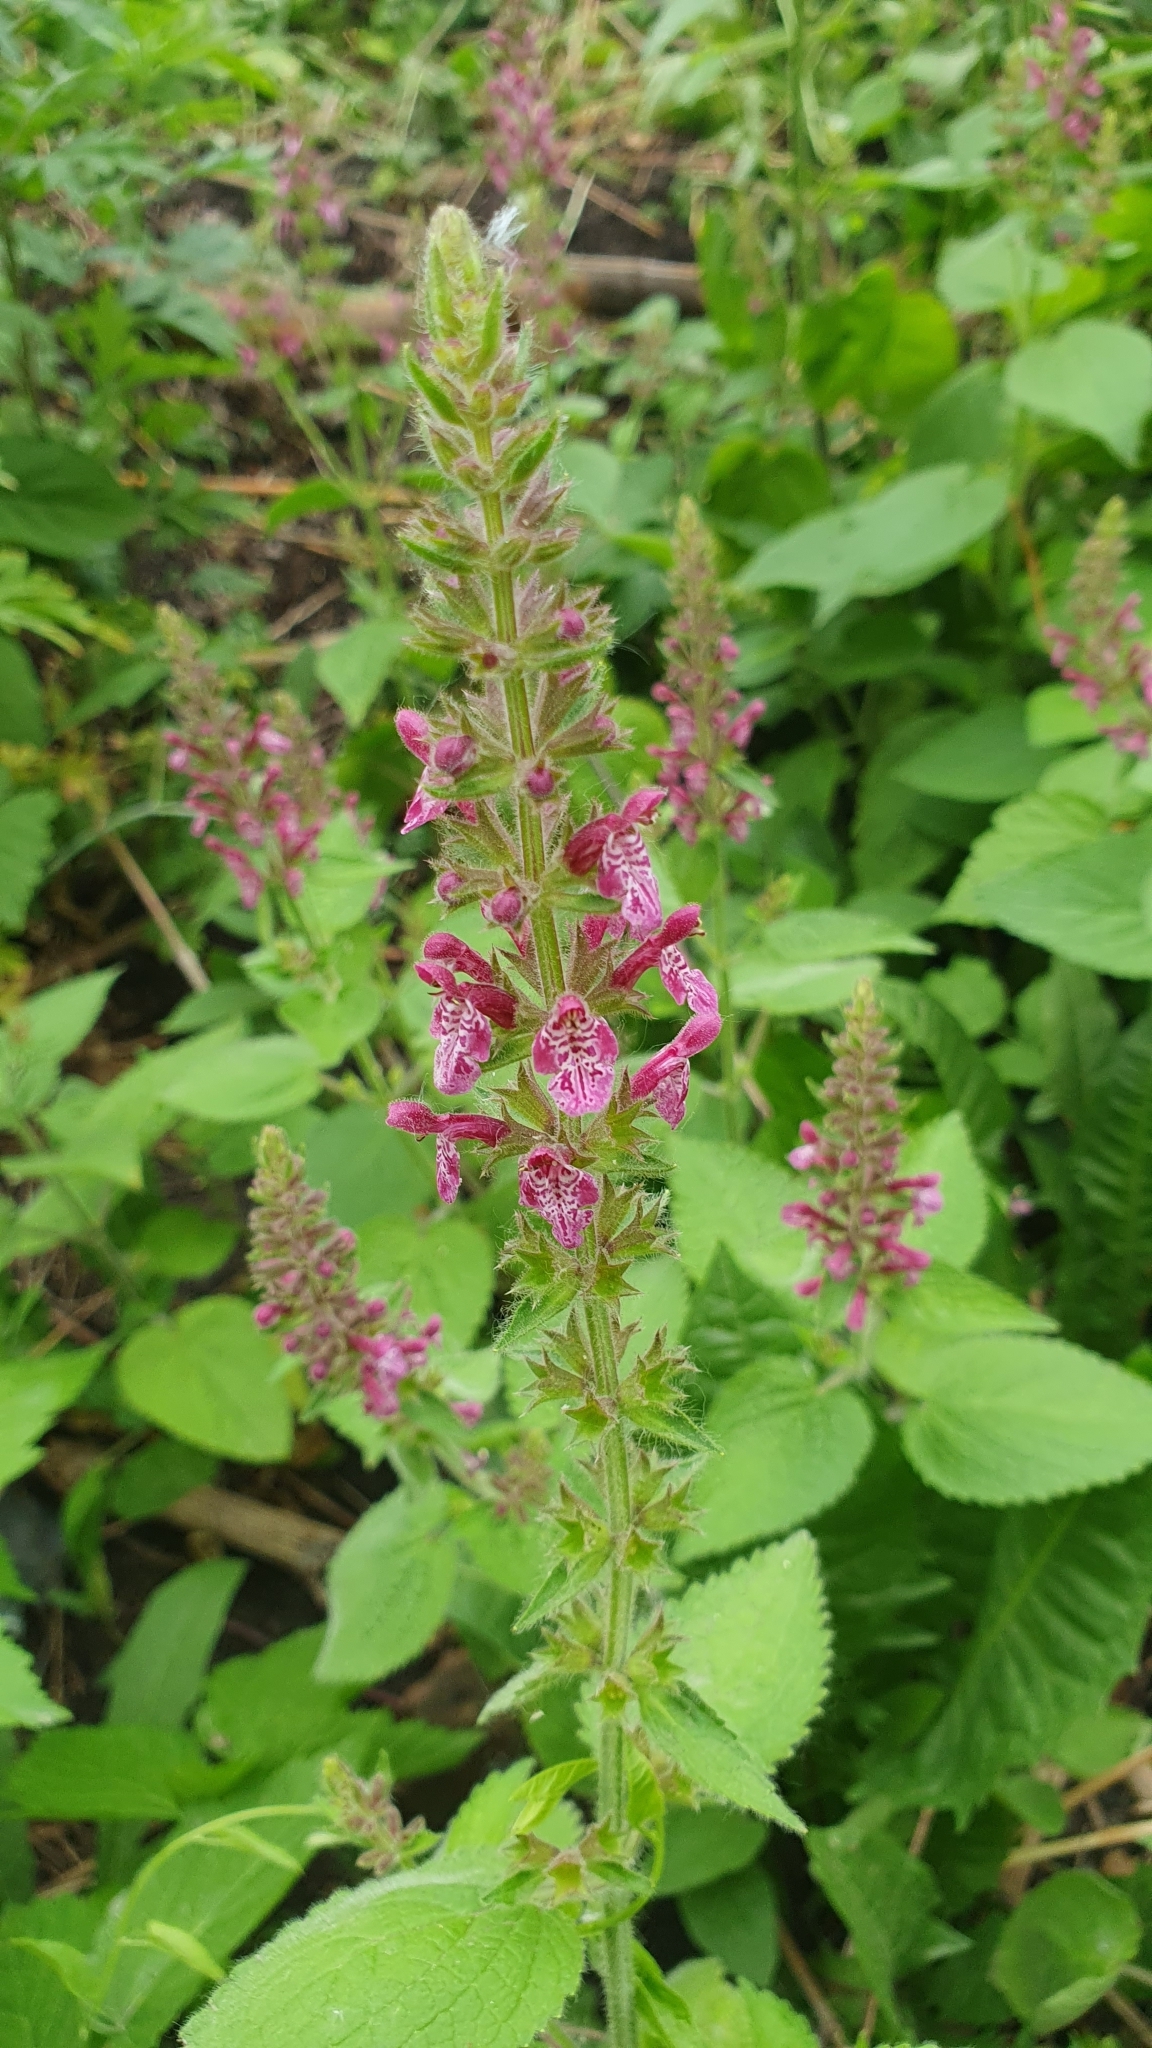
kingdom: Plantae
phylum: Tracheophyta
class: Magnoliopsida
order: Lamiales
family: Lamiaceae
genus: Stachys
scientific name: Stachys sylvatica
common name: Hedge woundwort
